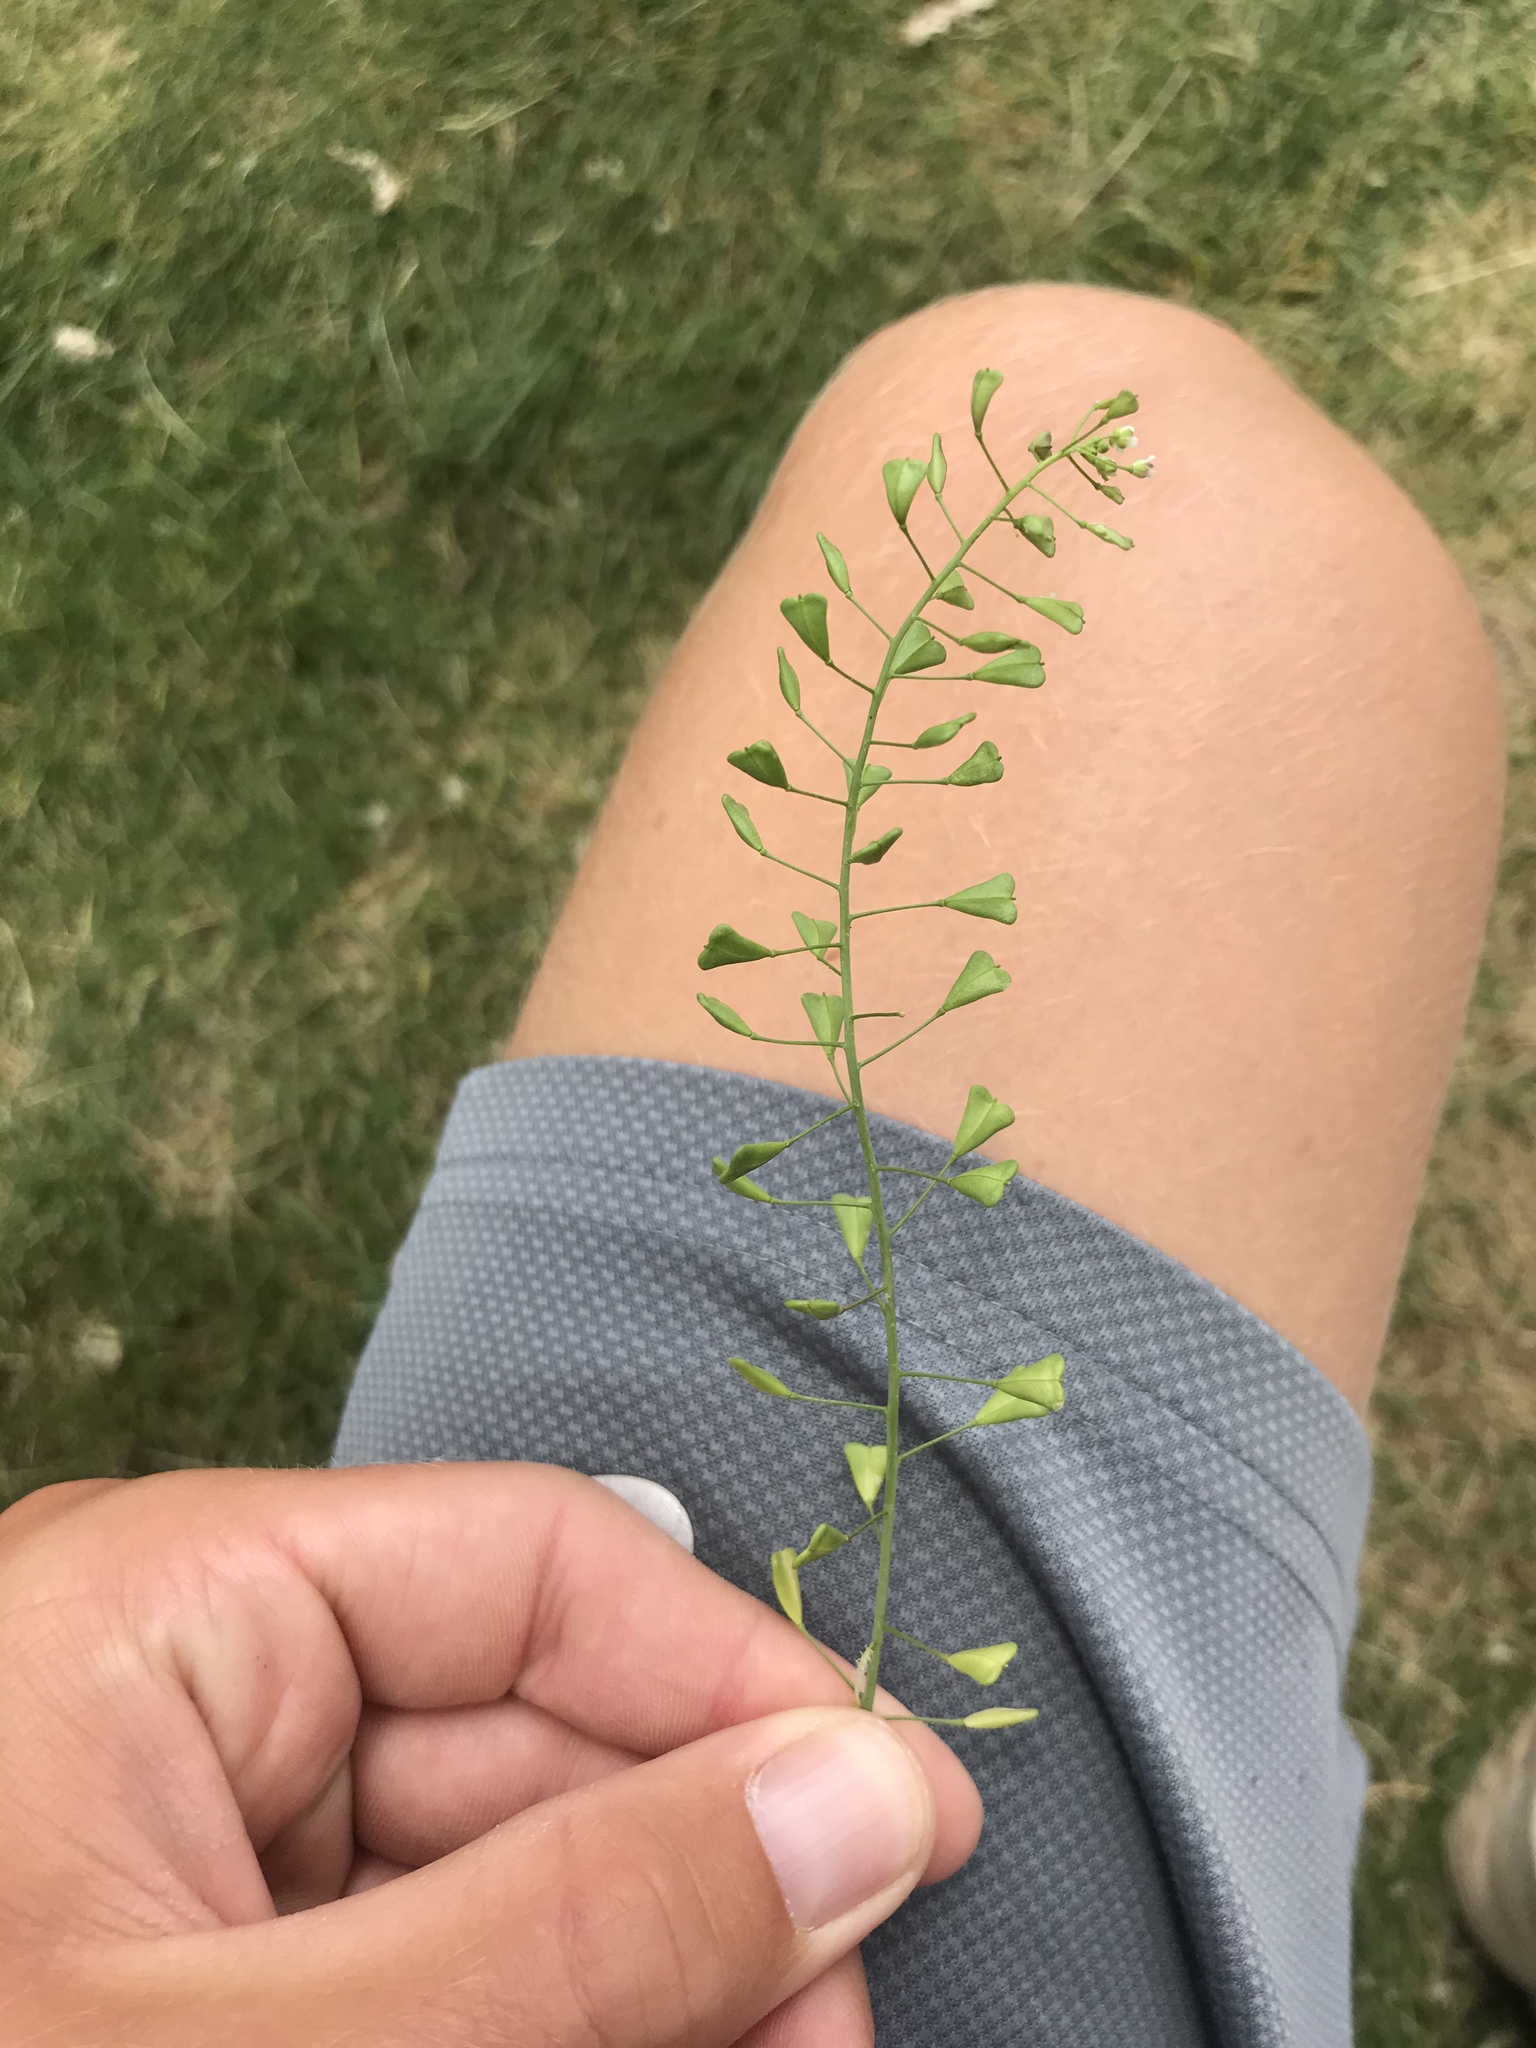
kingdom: Plantae
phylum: Tracheophyta
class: Magnoliopsida
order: Brassicales
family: Brassicaceae
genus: Capsella
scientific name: Capsella bursa-pastoris
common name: Shepherd's purse
